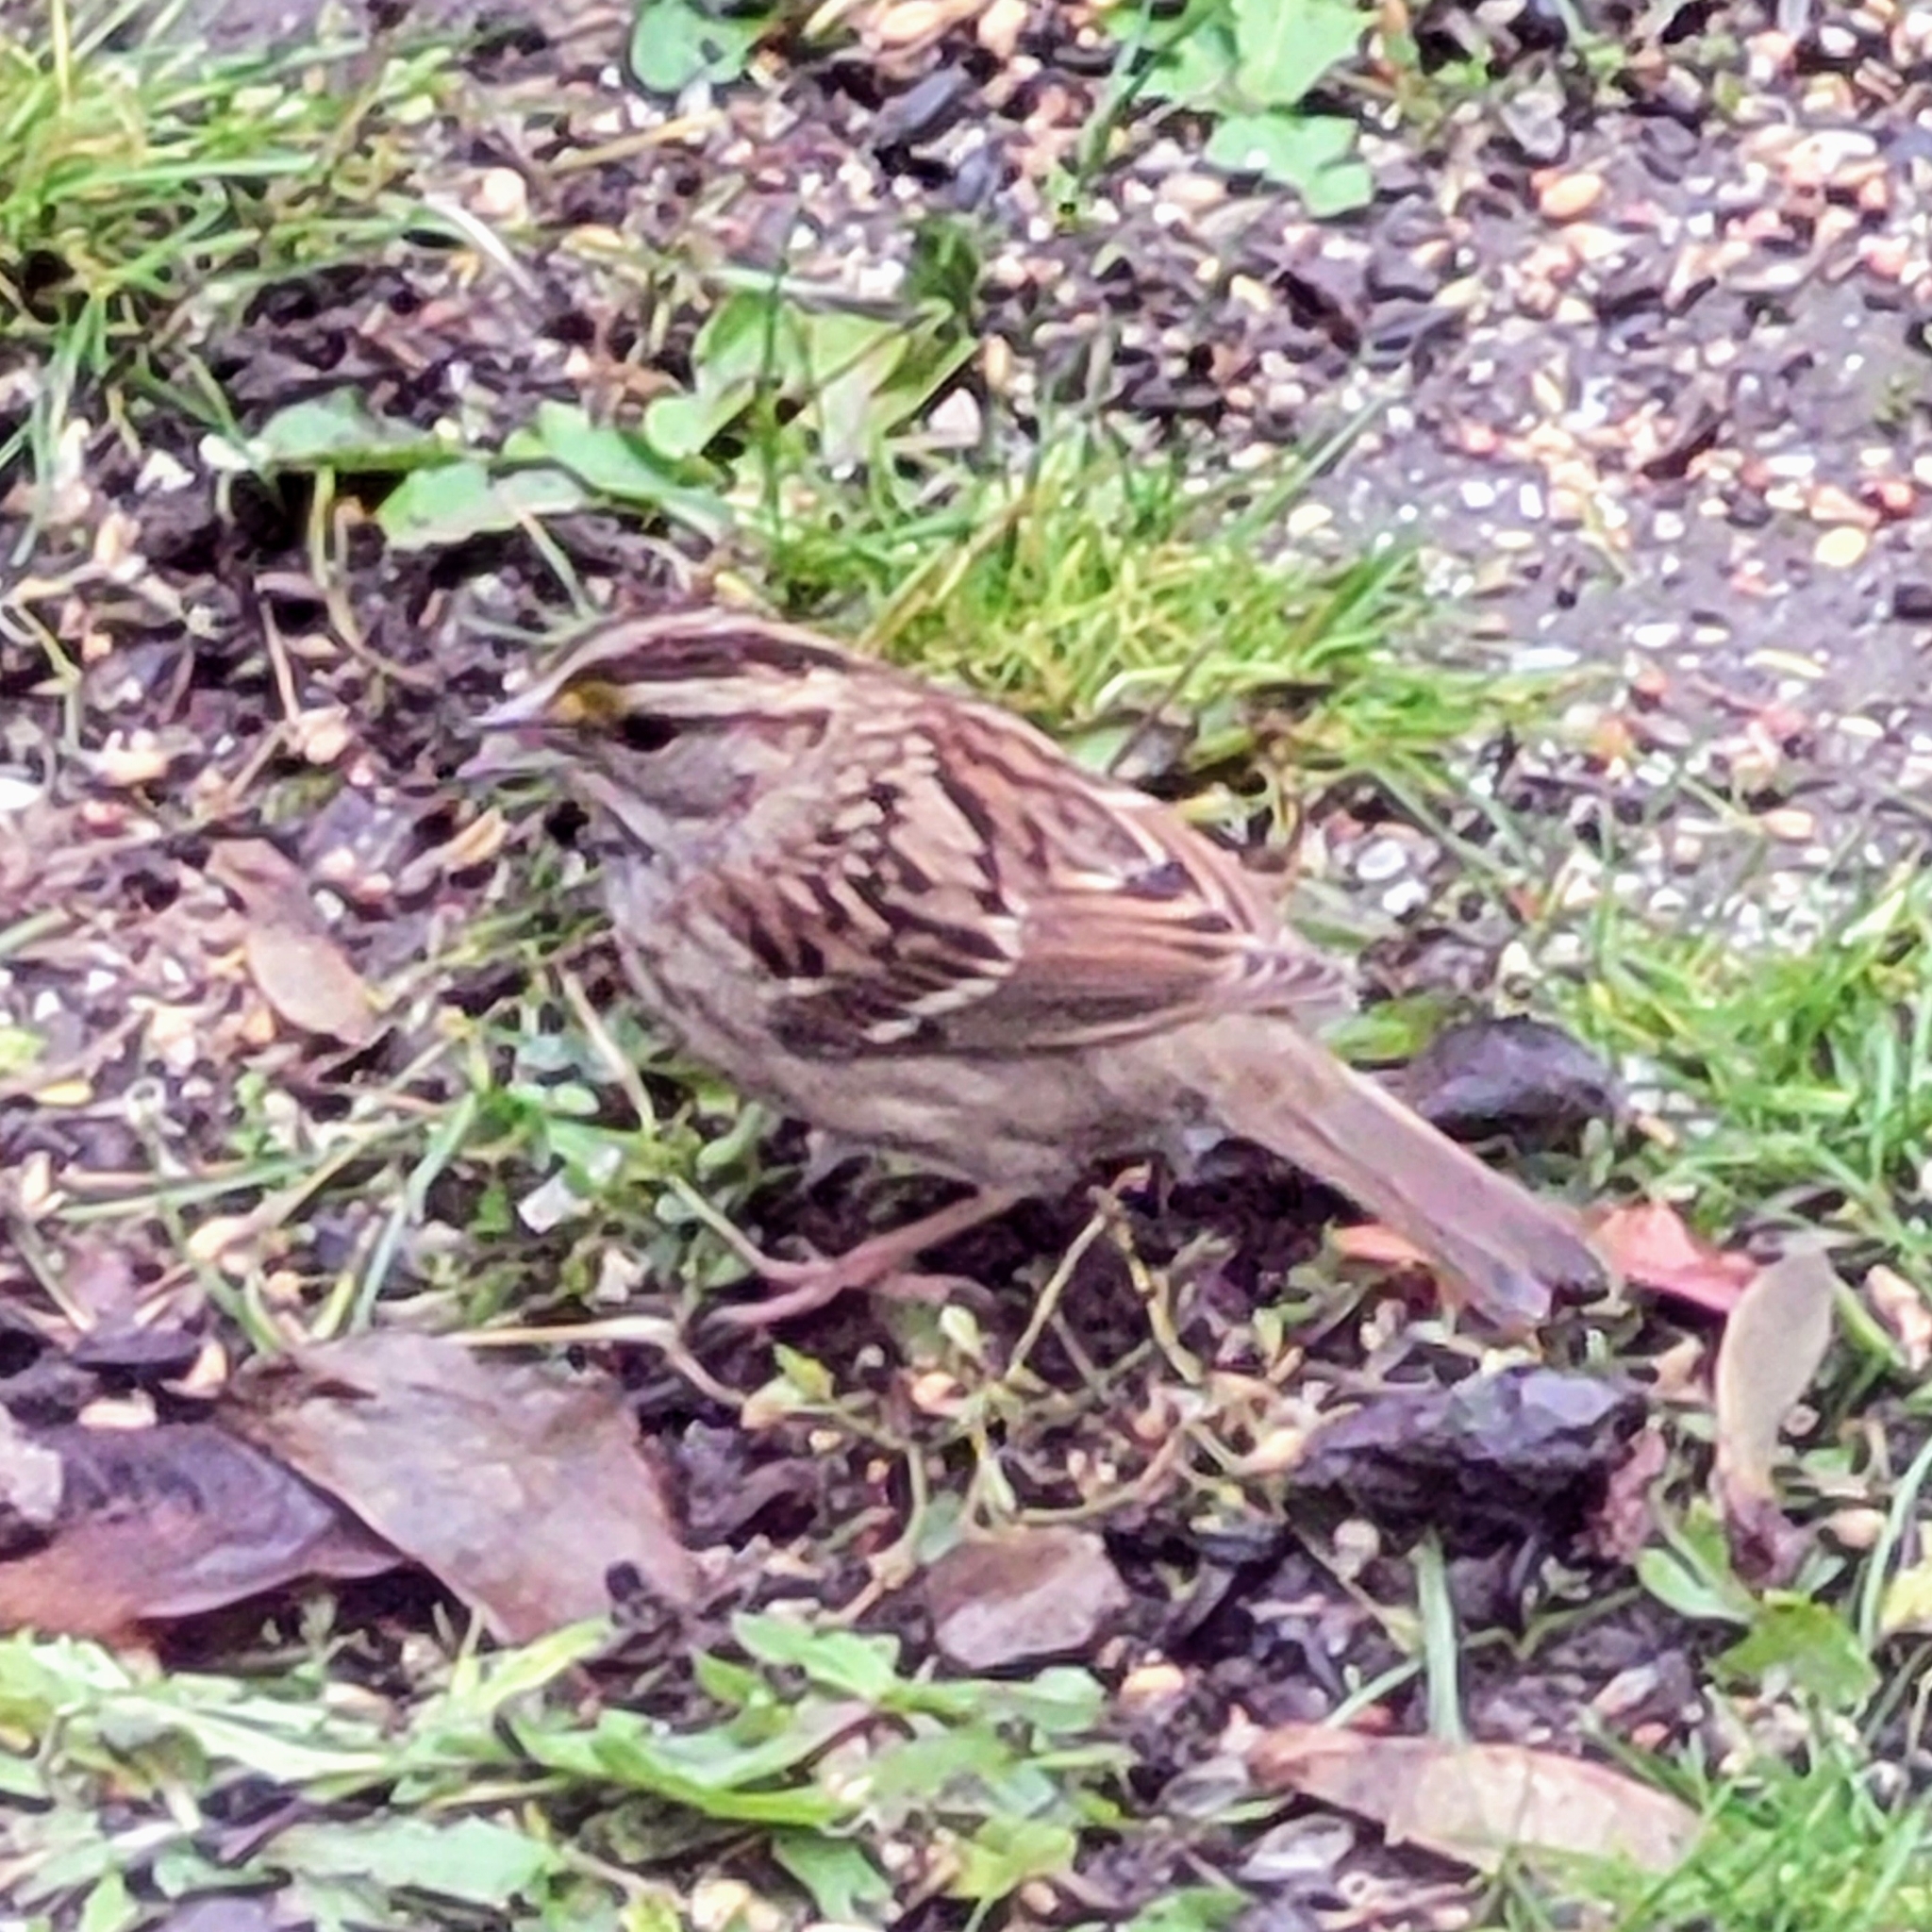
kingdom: Animalia
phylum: Chordata
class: Aves
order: Passeriformes
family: Passerellidae
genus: Zonotrichia
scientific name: Zonotrichia albicollis
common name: White-throated sparrow
